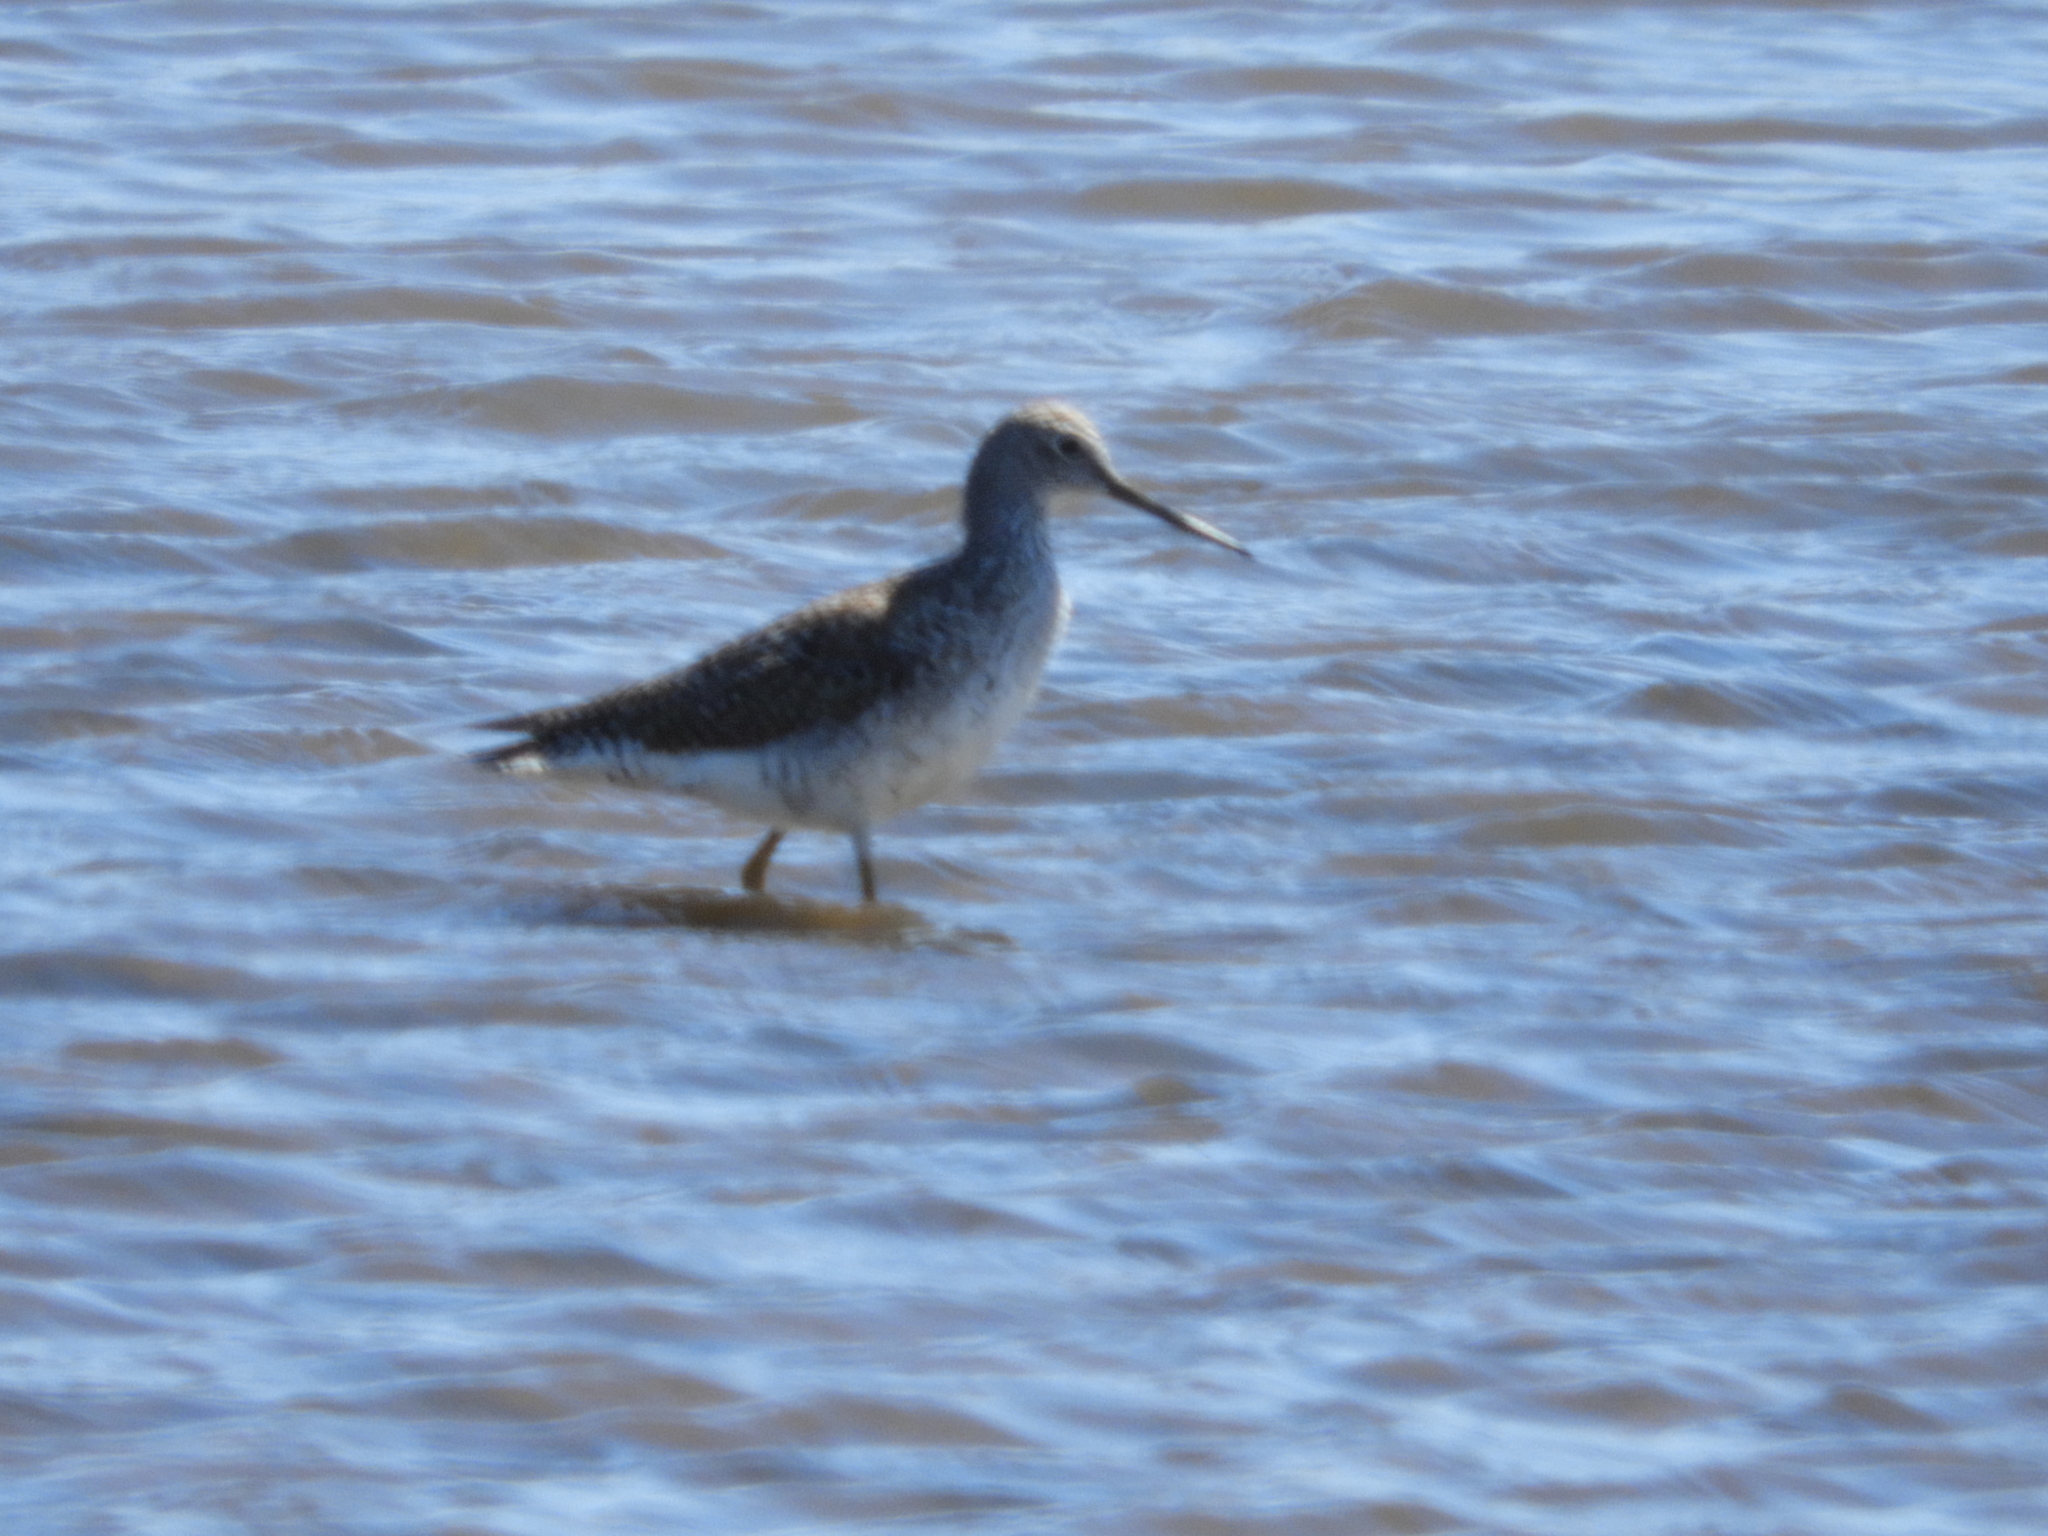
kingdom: Animalia
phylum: Chordata
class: Aves
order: Charadriiformes
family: Scolopacidae
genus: Tringa
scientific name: Tringa melanoleuca
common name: Greater yellowlegs
